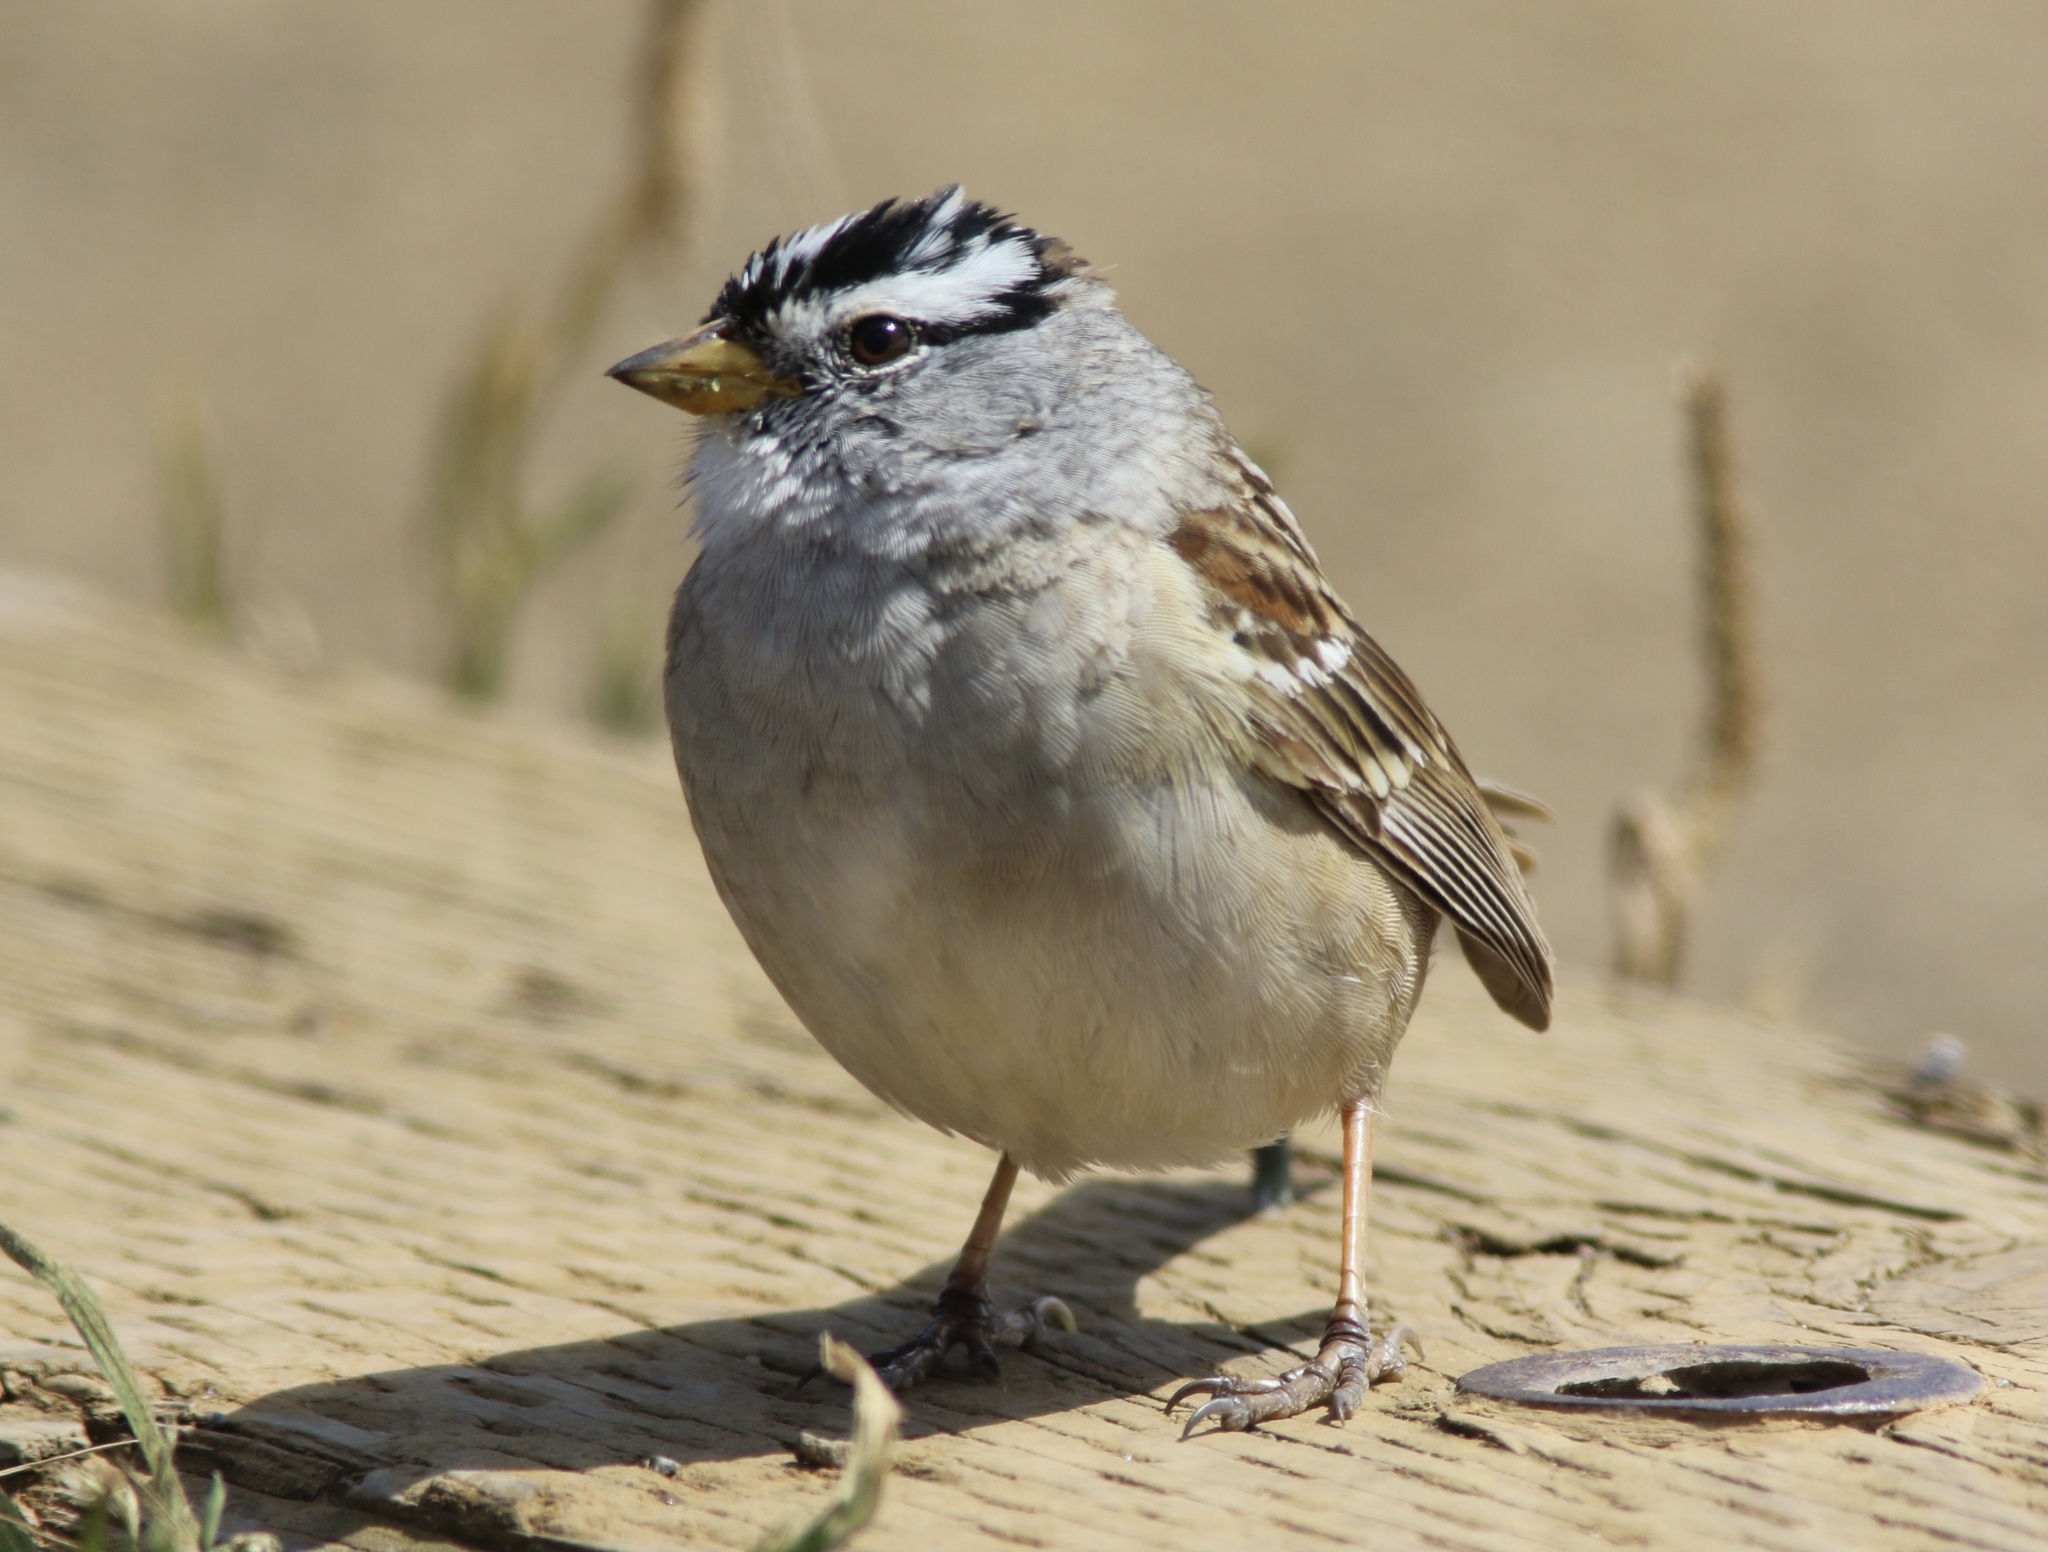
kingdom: Animalia
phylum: Chordata
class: Aves
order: Passeriformes
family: Passerellidae
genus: Zonotrichia
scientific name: Zonotrichia leucophrys
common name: White-crowned sparrow
